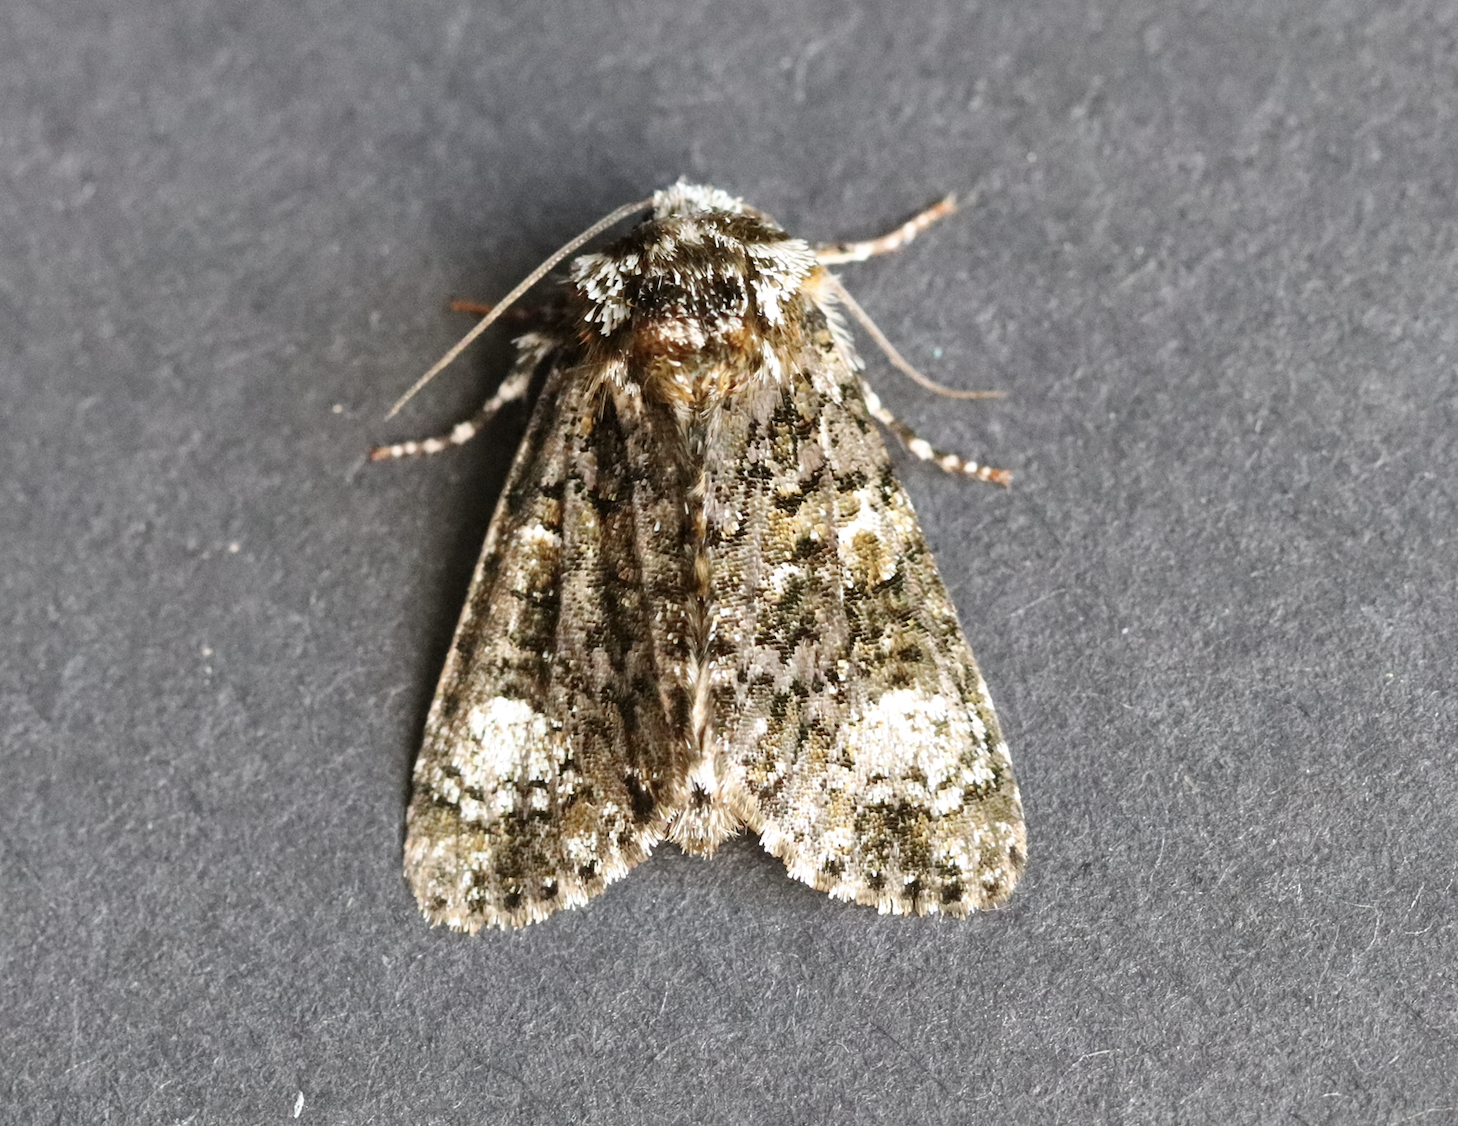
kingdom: Animalia
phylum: Arthropoda
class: Insecta
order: Lepidoptera
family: Noctuidae
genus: Craniophora
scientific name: Craniophora ligustri
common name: Coronet
